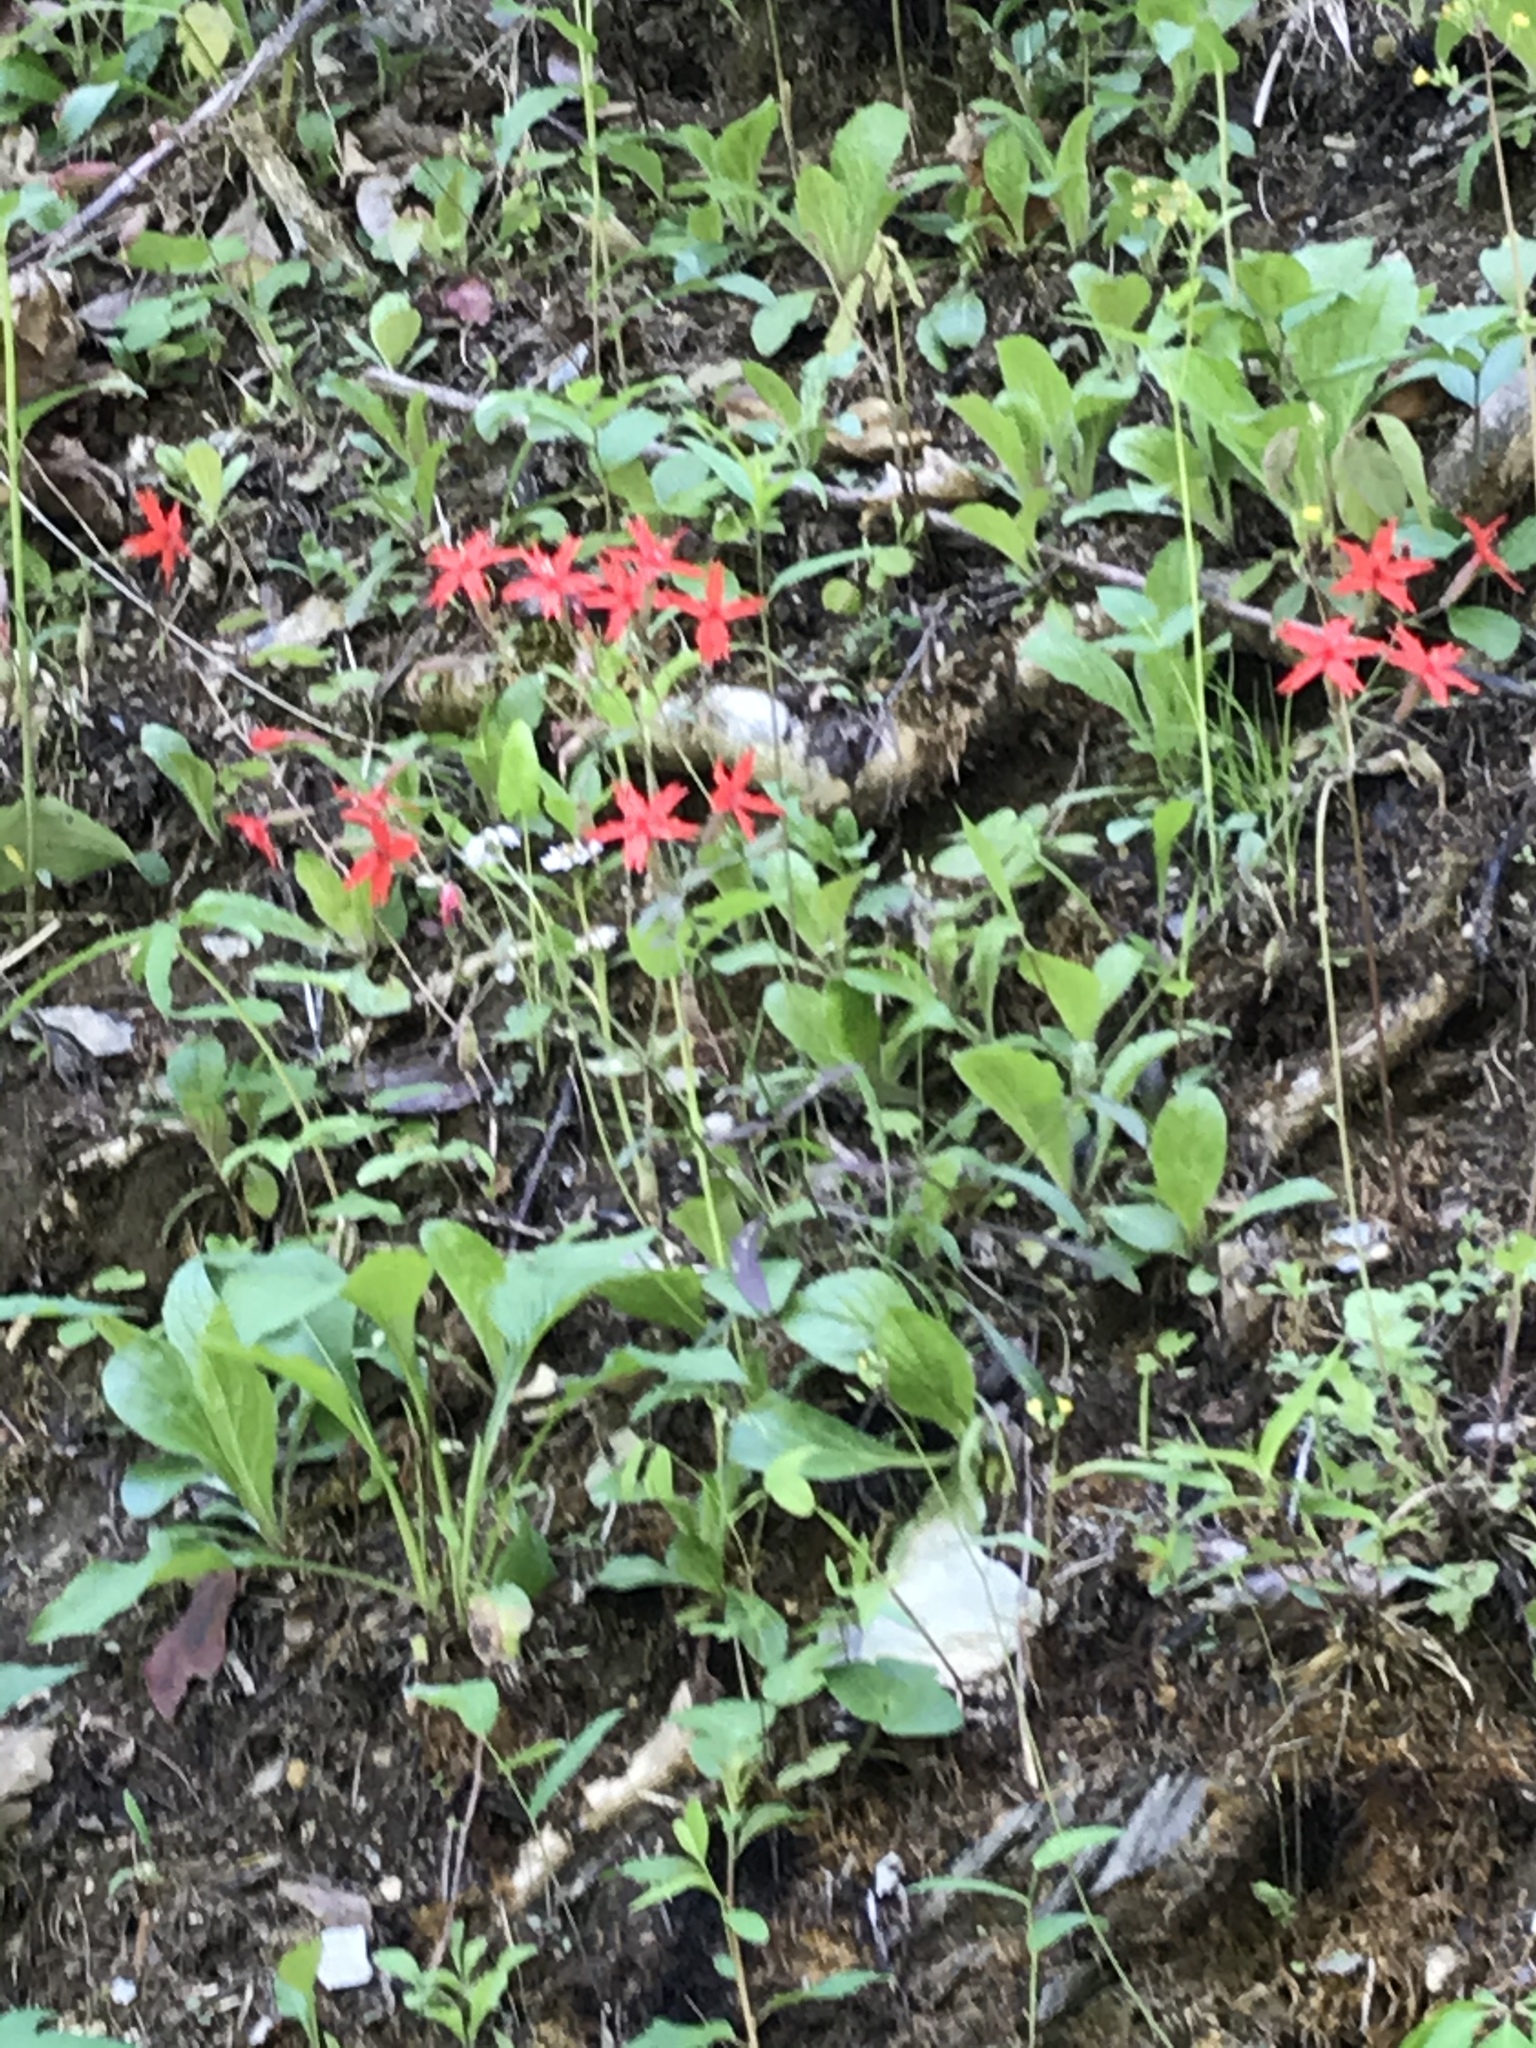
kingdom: Plantae
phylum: Tracheophyta
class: Magnoliopsida
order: Caryophyllales
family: Caryophyllaceae
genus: Silene
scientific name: Silene virginica
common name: Fire-pink
